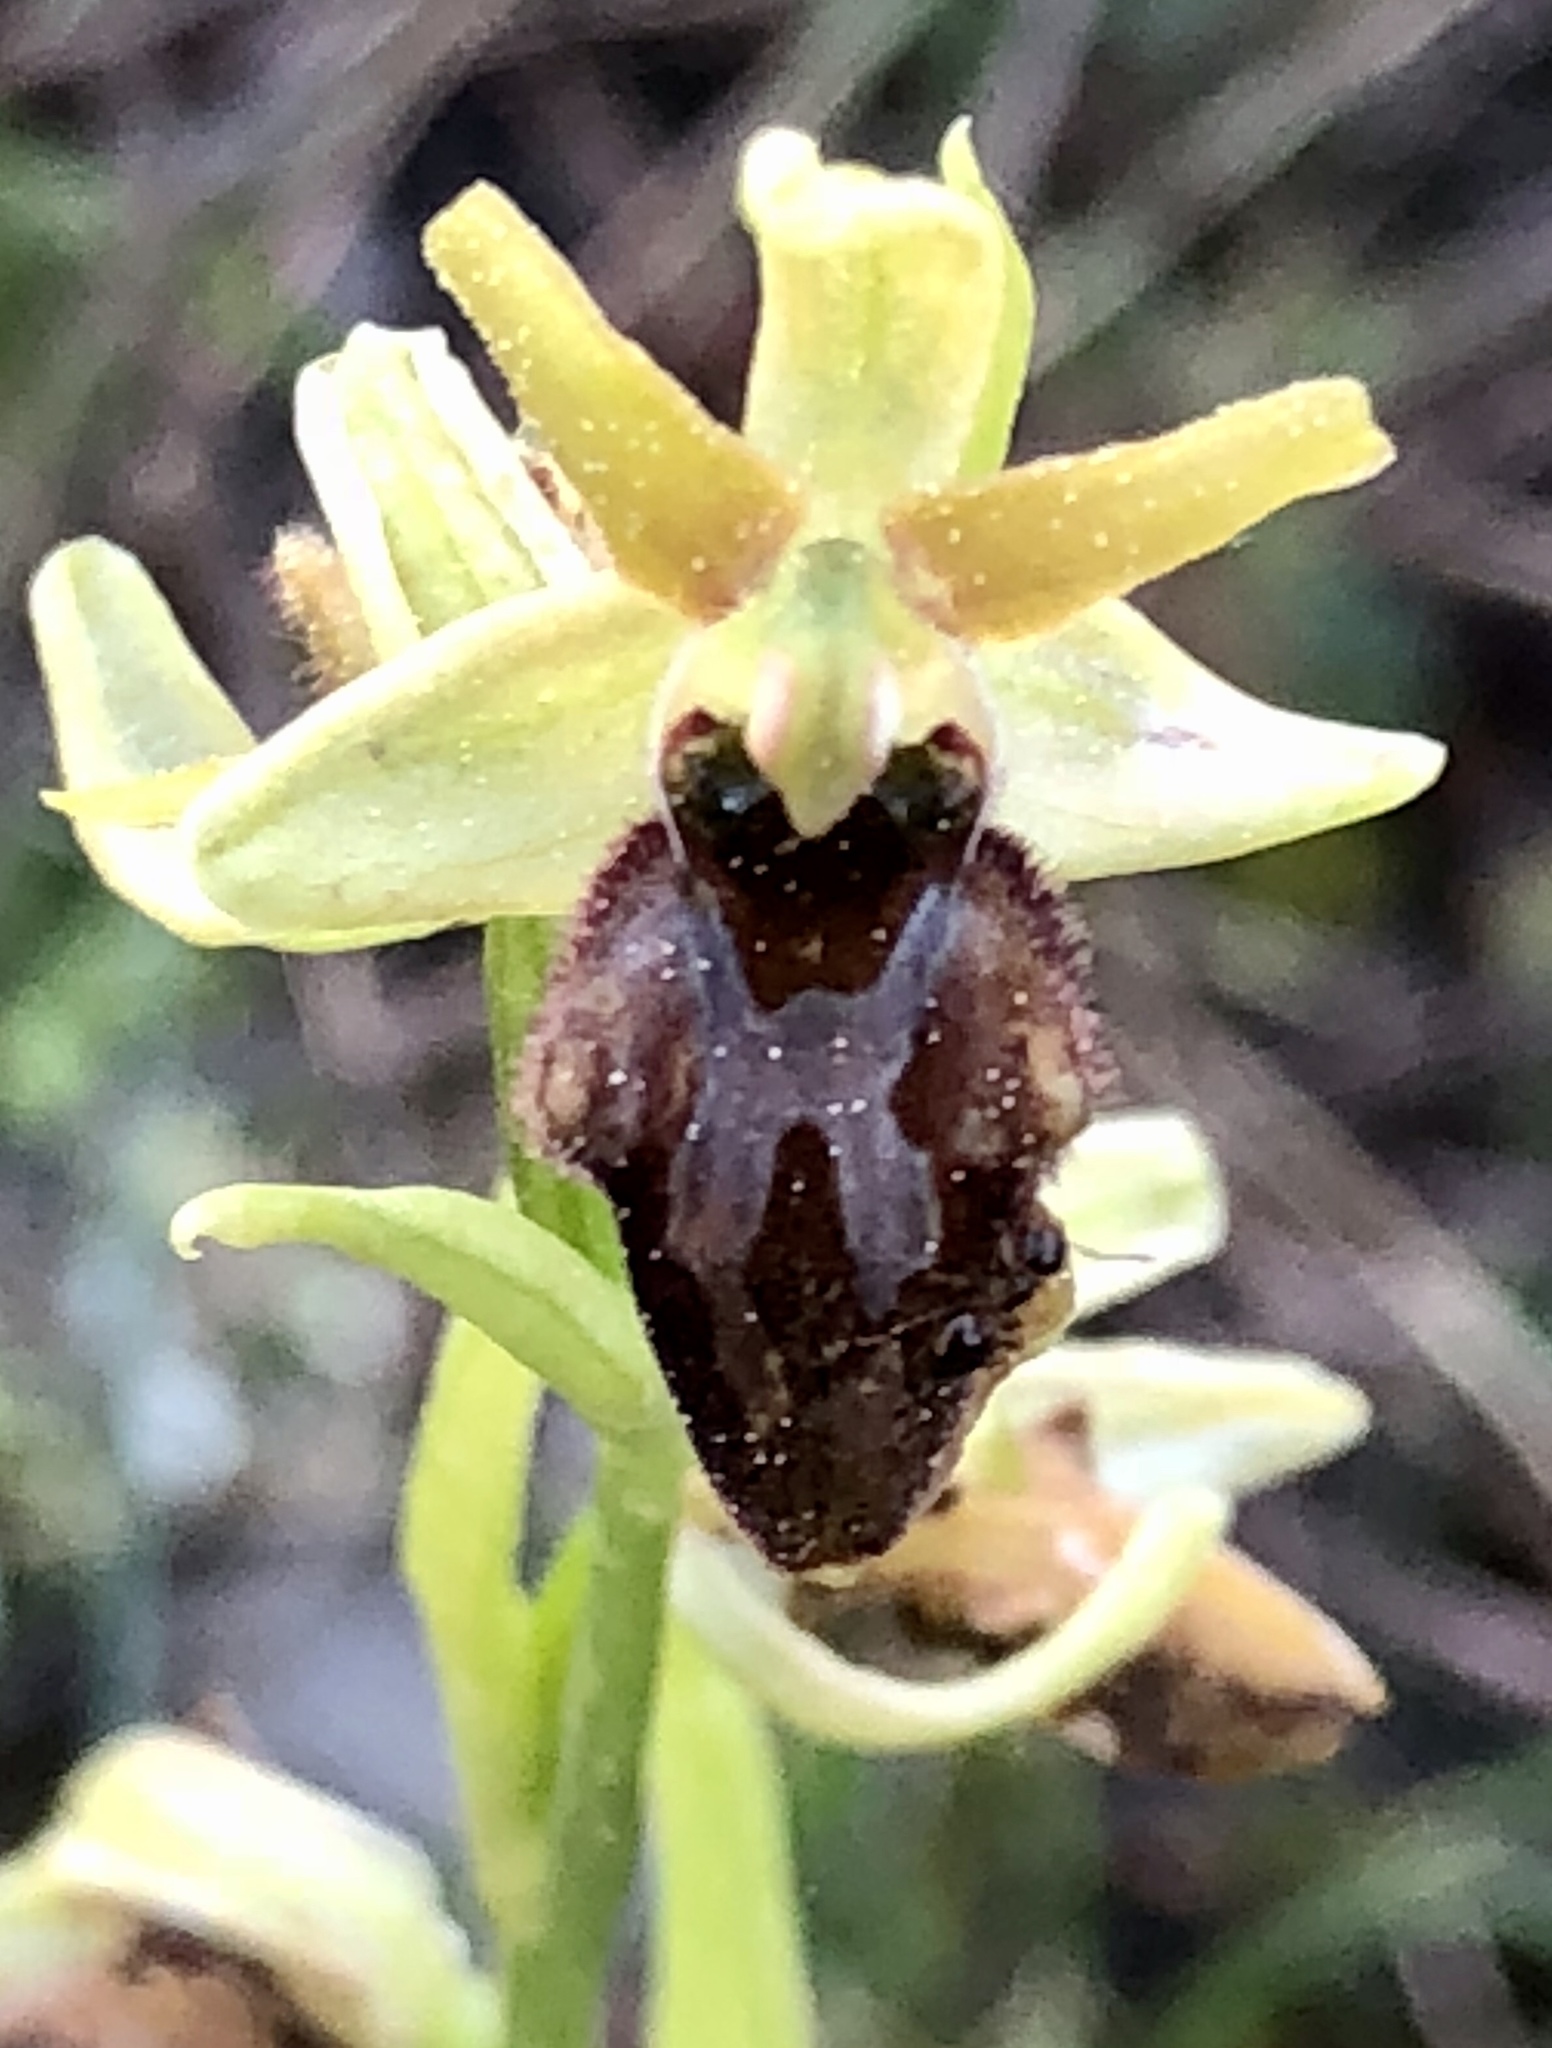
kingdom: Plantae
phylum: Tracheophyta
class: Liliopsida
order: Asparagales
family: Orchidaceae
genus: Ophrys
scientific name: Ophrys sphegodes
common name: Early spider-orchid
